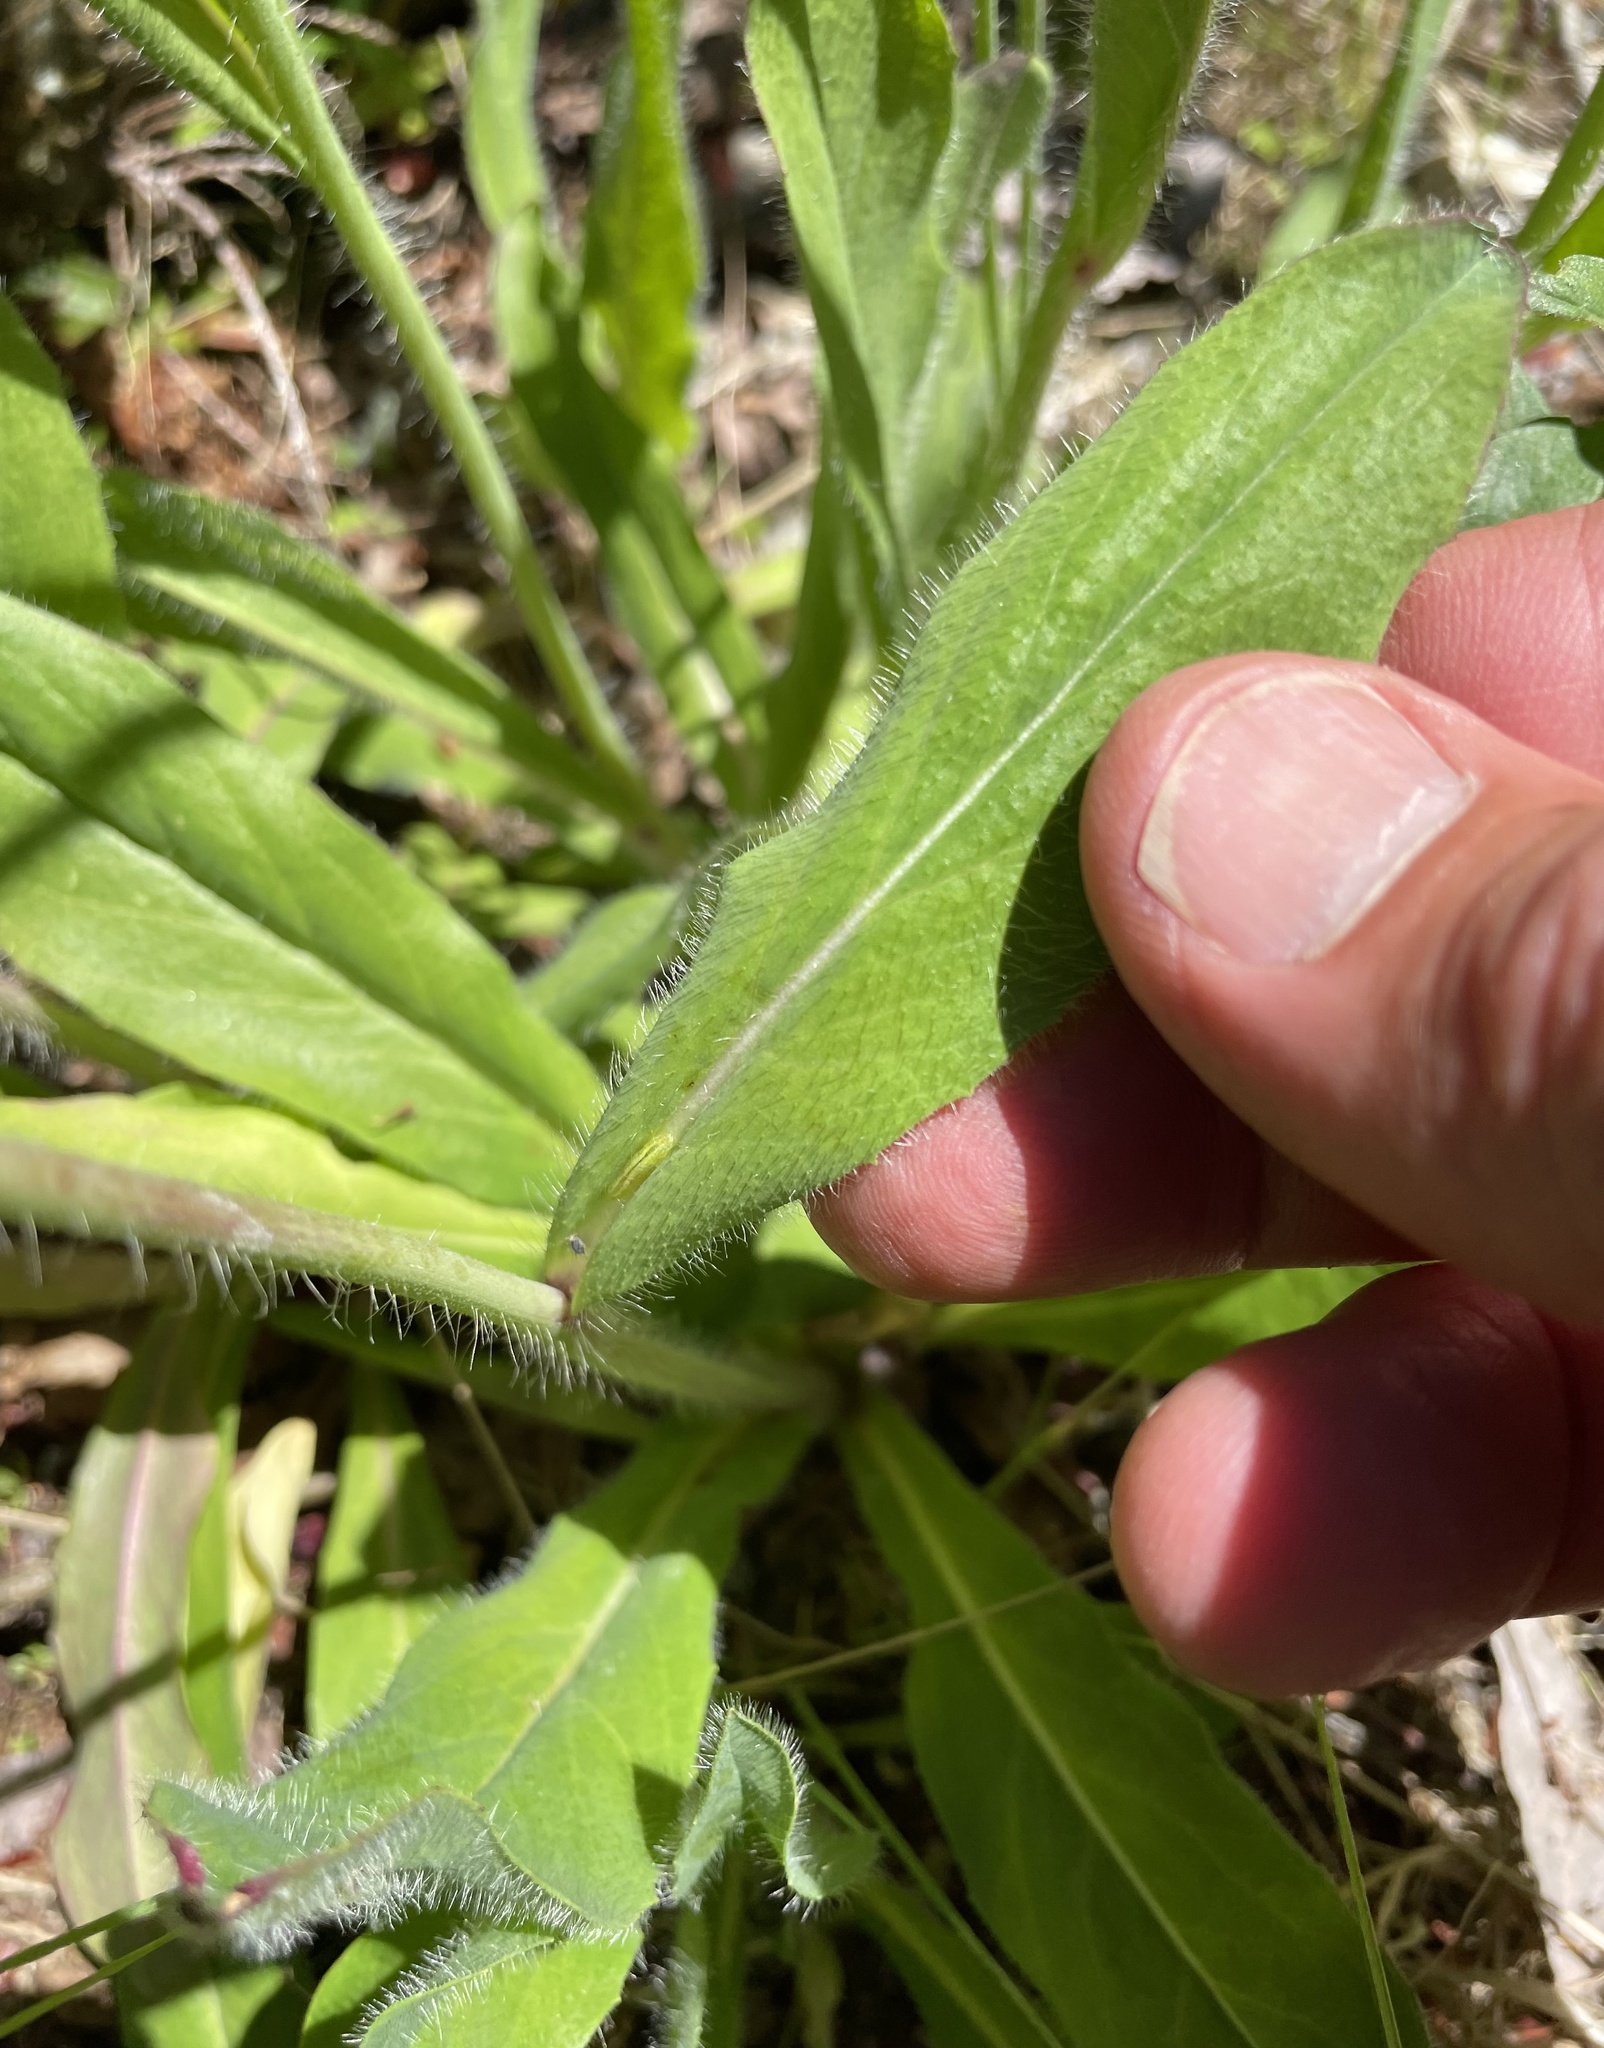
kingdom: Plantae
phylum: Tracheophyta
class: Magnoliopsida
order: Asterales
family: Asteraceae
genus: Pilosella
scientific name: Pilosella aurantiaca
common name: Fox-and-cubs
